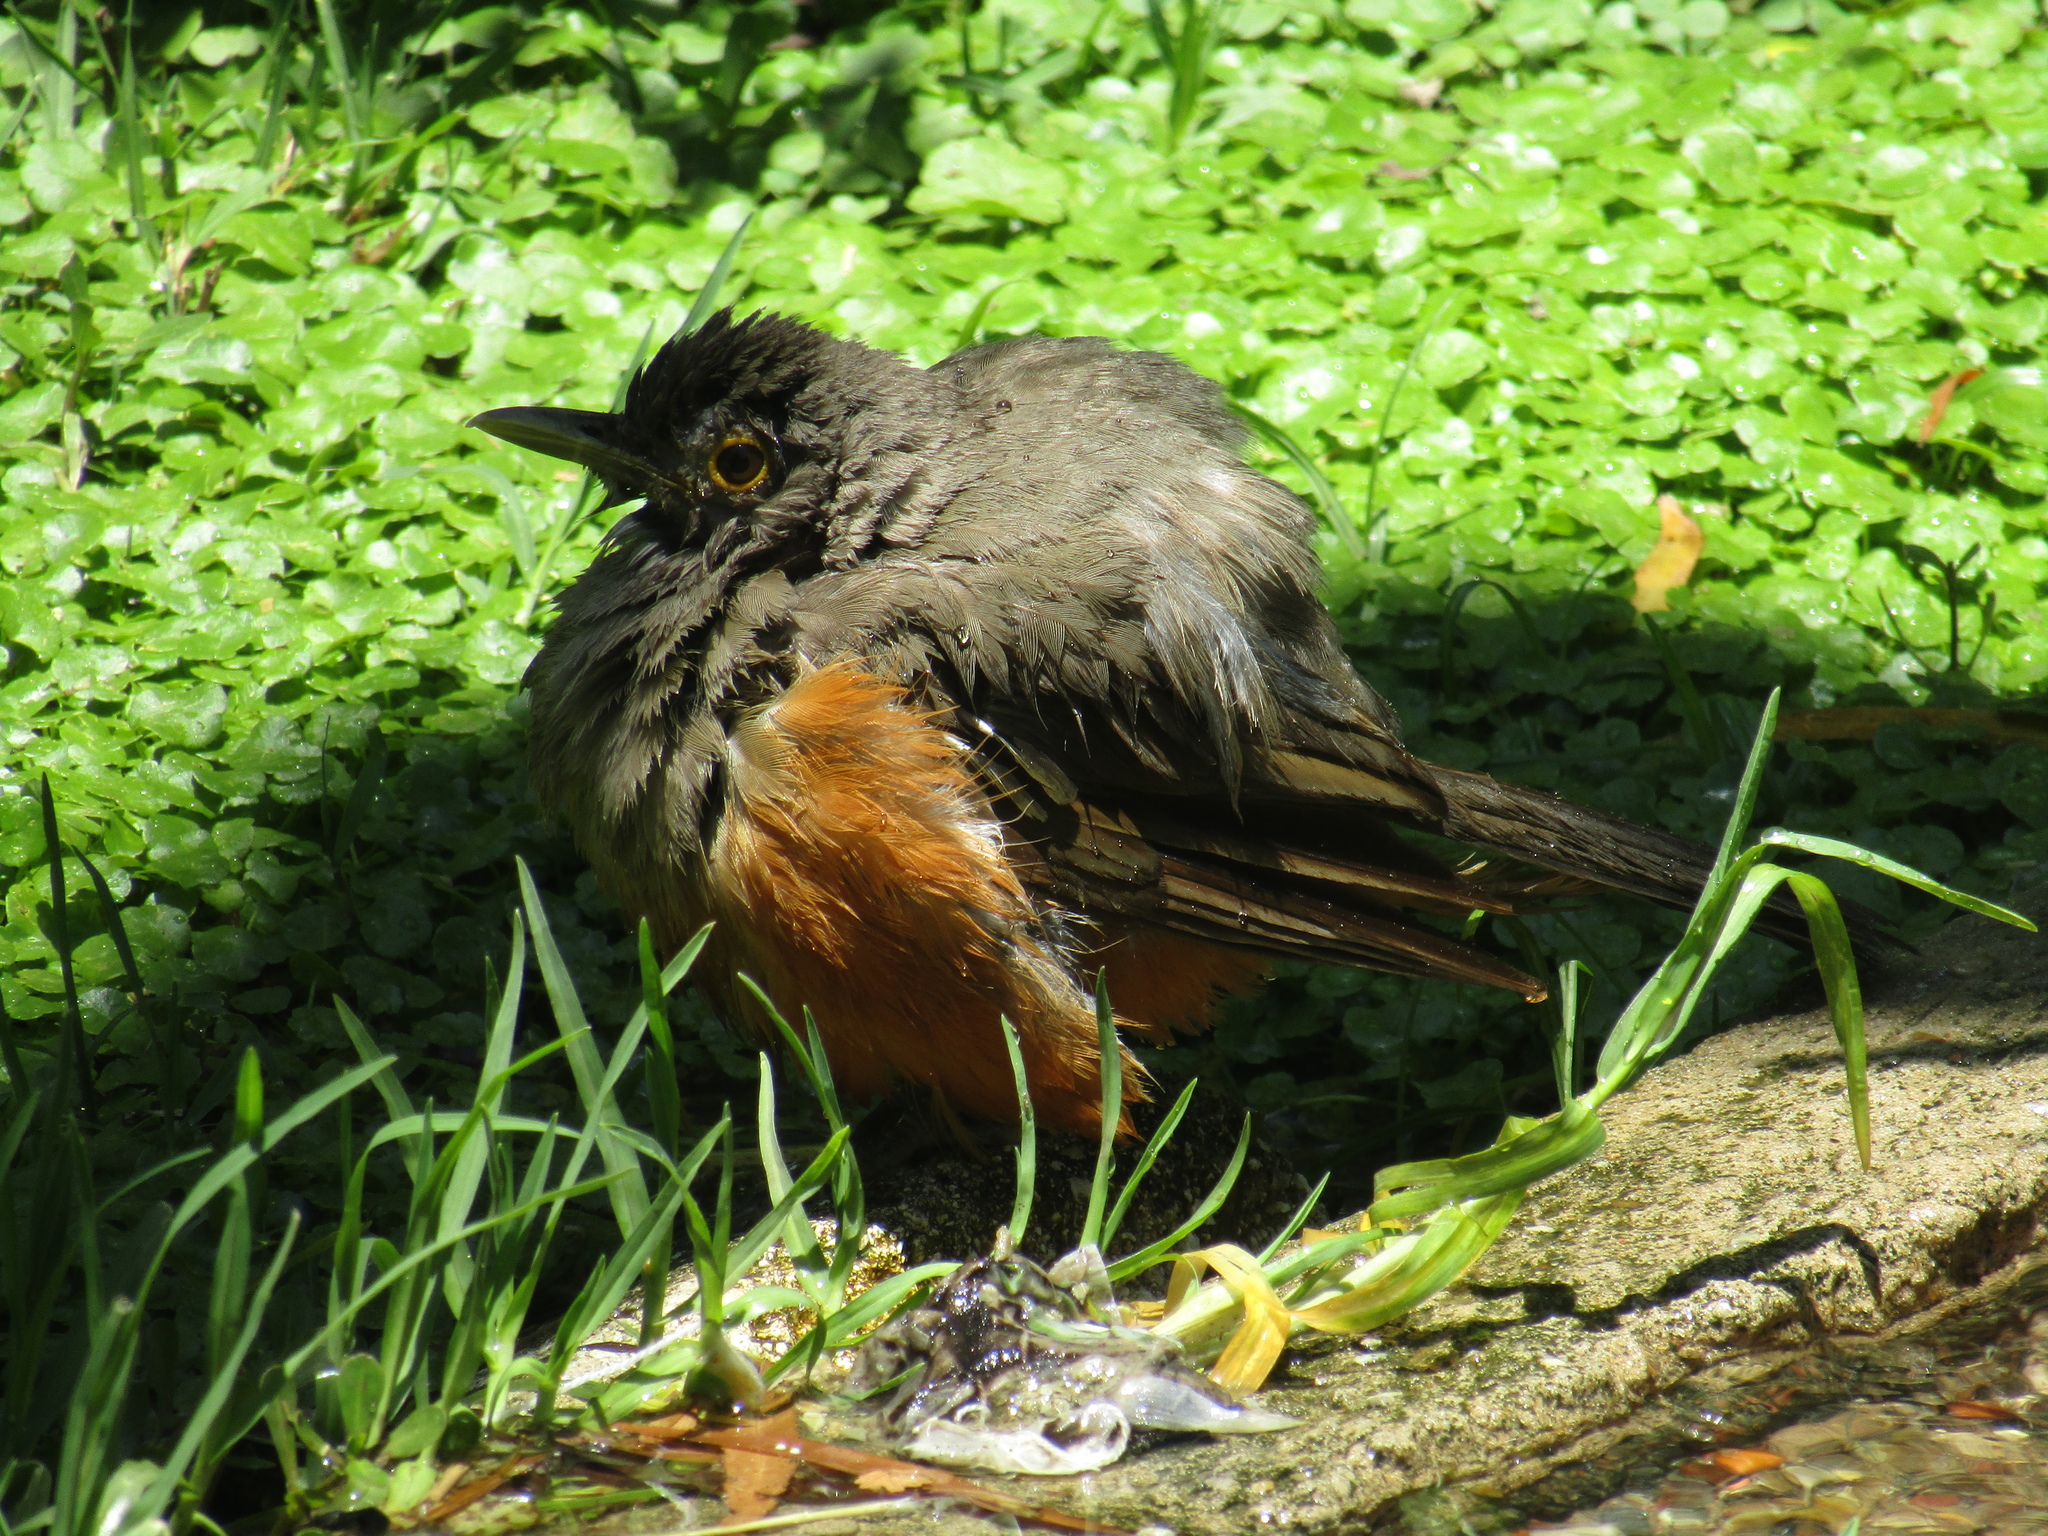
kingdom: Animalia
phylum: Chordata
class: Aves
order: Passeriformes
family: Turdidae
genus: Turdus
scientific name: Turdus rufiventris
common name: Rufous-bellied thrush
